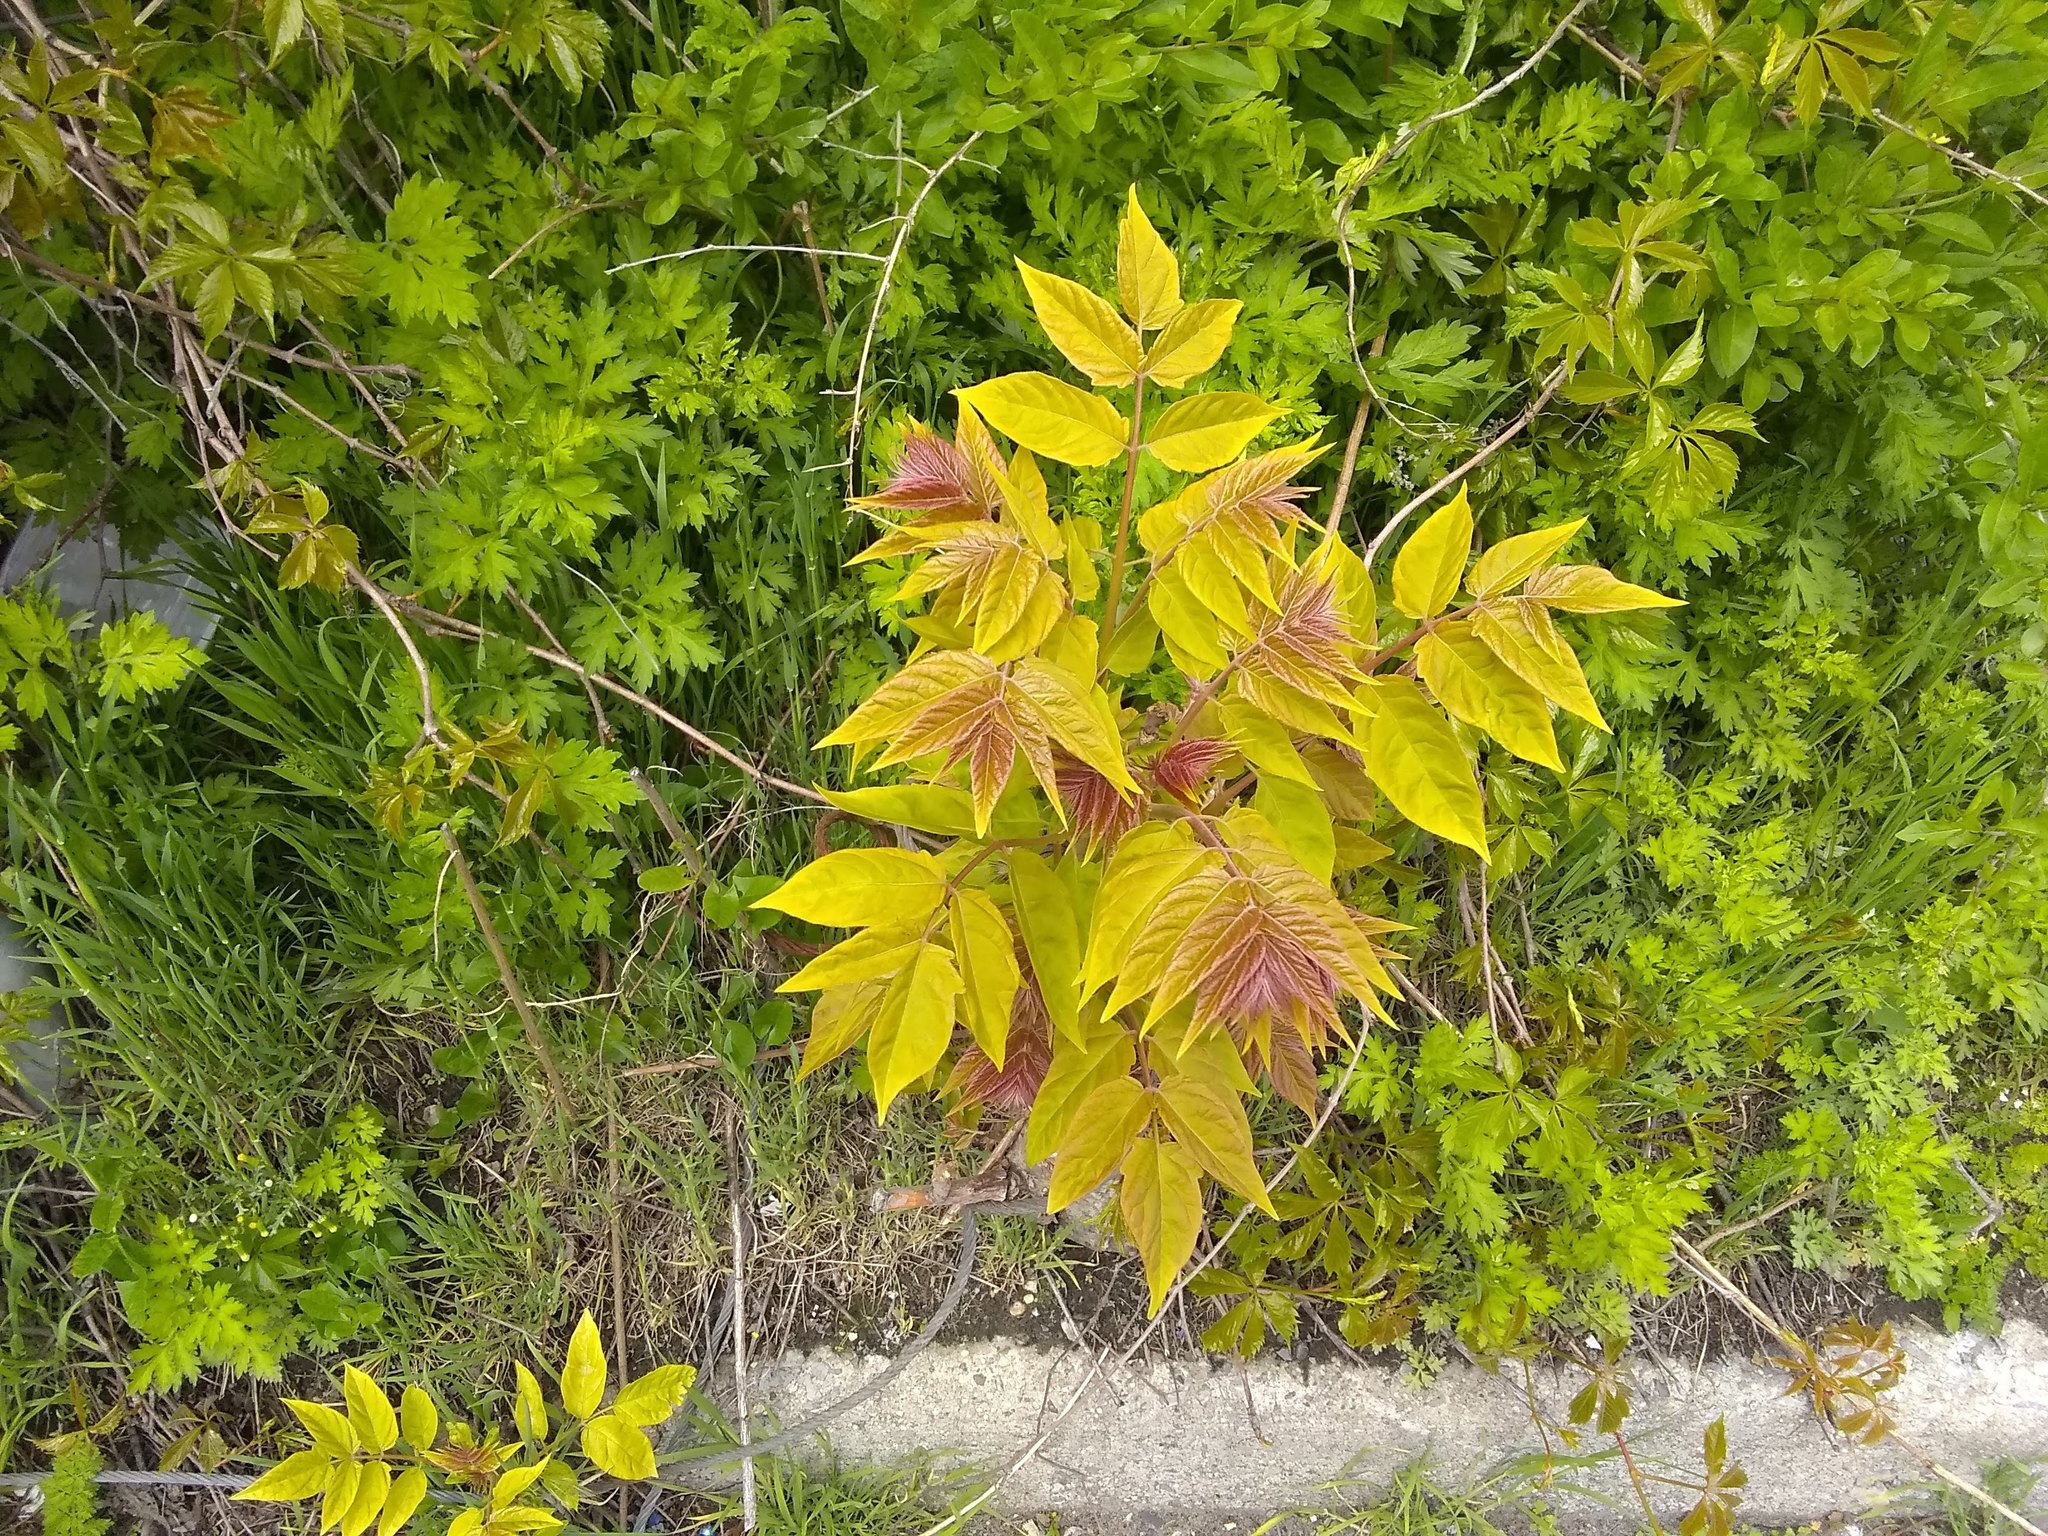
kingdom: Plantae
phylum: Tracheophyta
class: Magnoliopsida
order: Sapindales
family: Simaroubaceae
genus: Ailanthus
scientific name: Ailanthus altissima
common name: Tree-of-heaven
